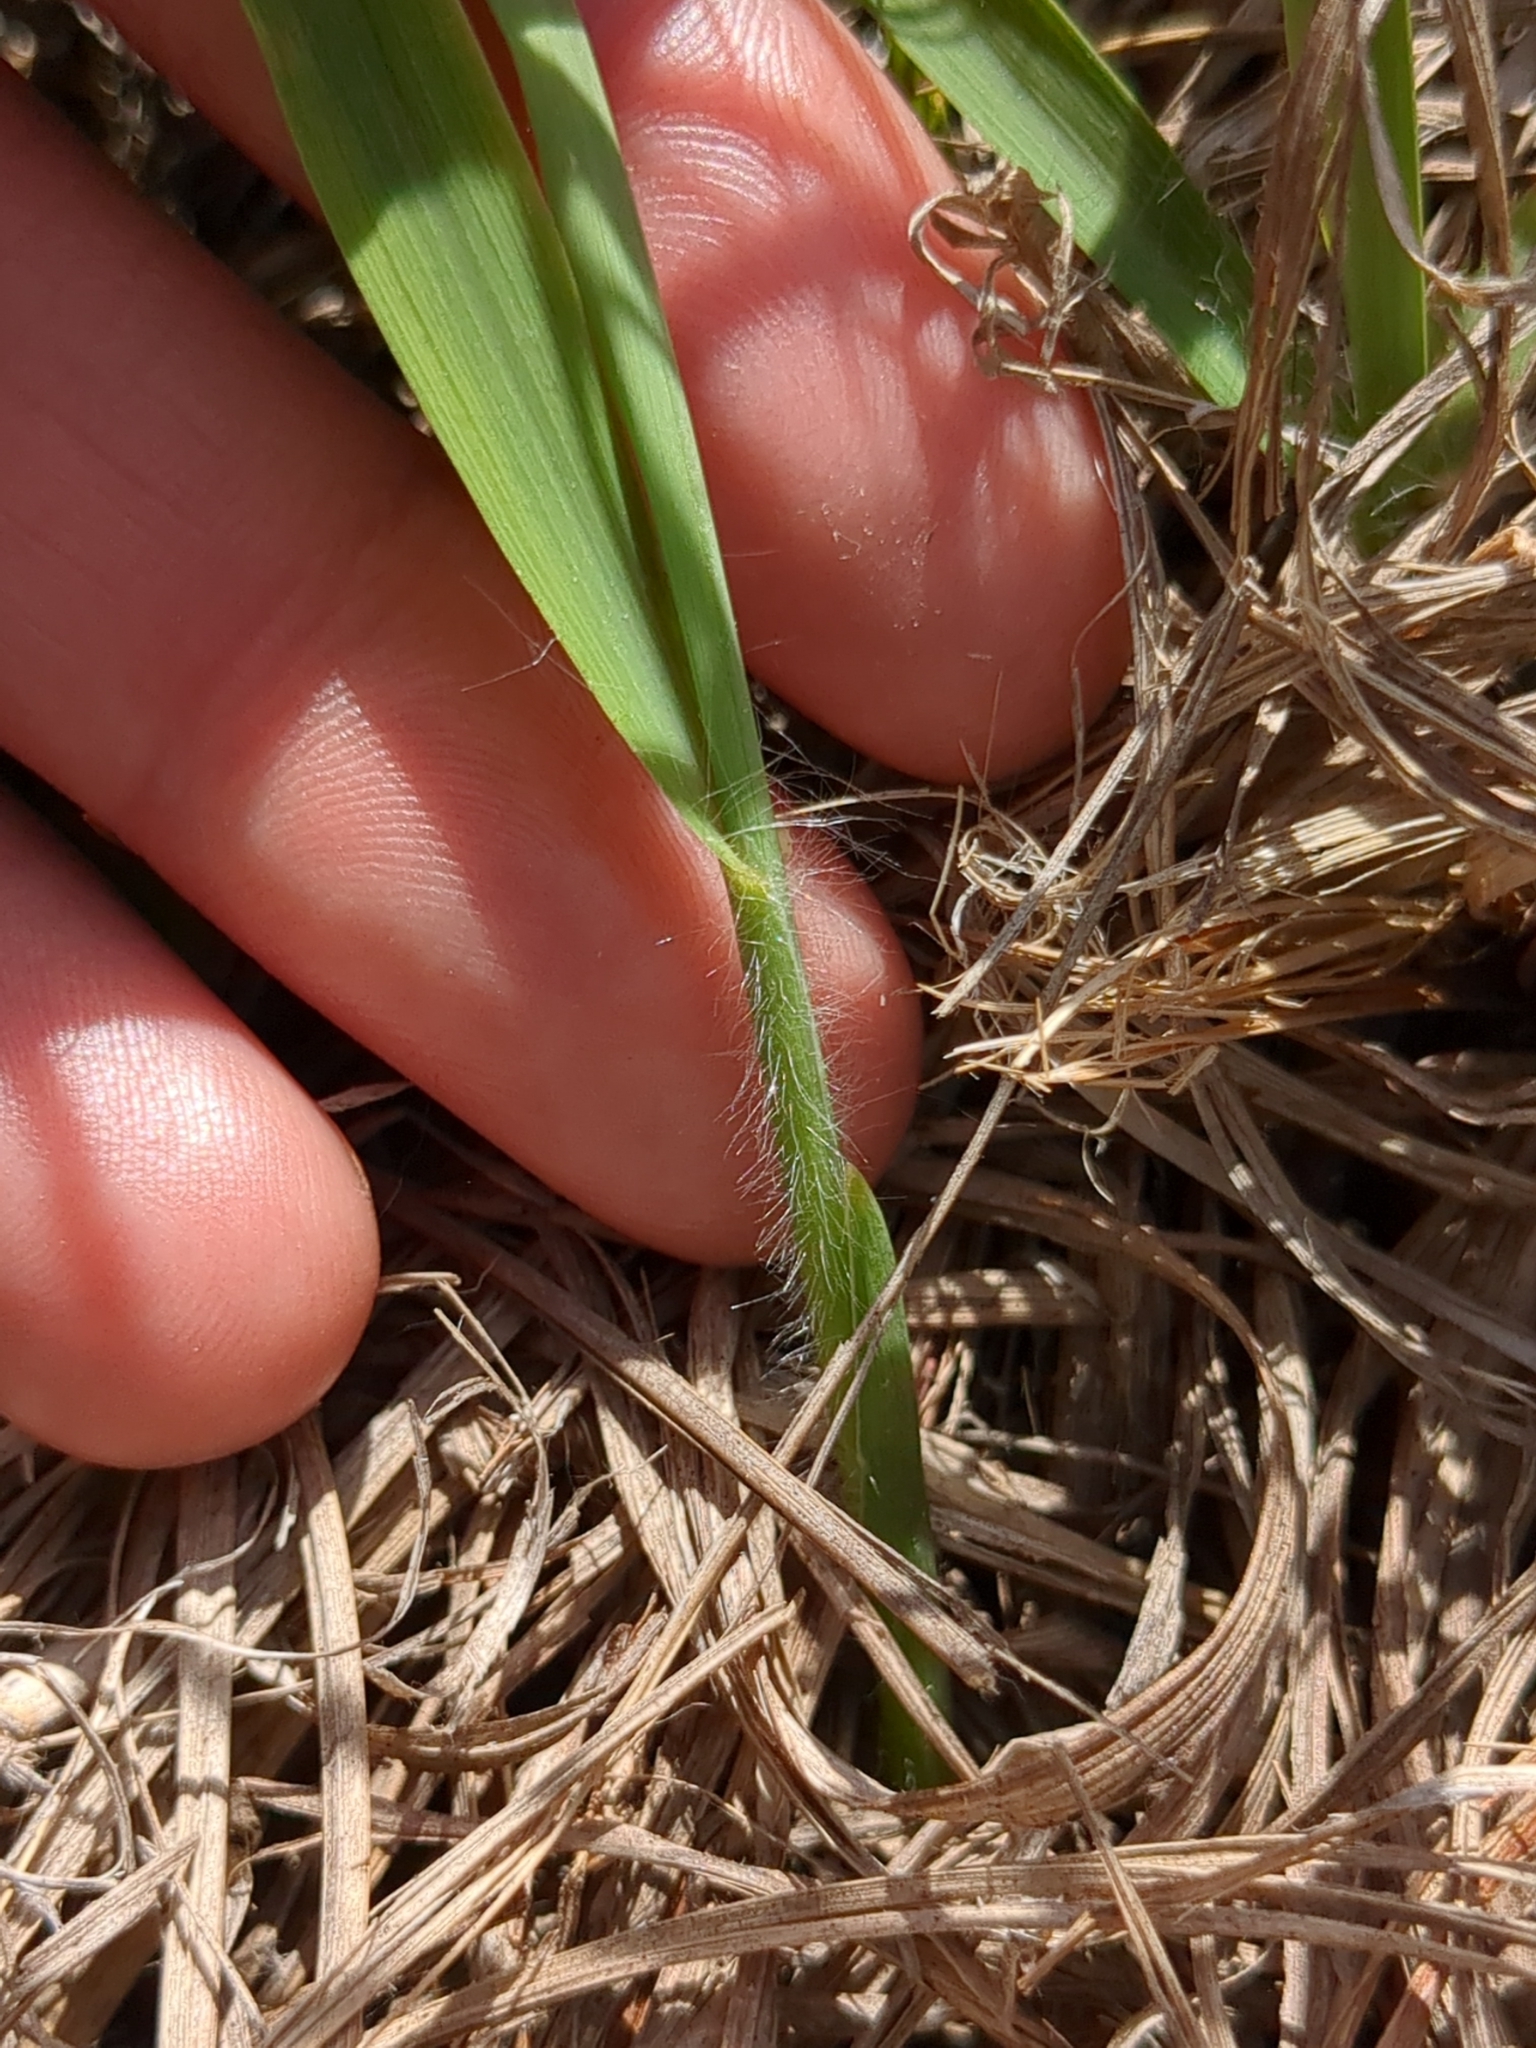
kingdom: Plantae
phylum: Tracheophyta
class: Liliopsida
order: Poales
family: Poaceae
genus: Andropogon
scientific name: Andropogon gerardi
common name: Big bluestem
